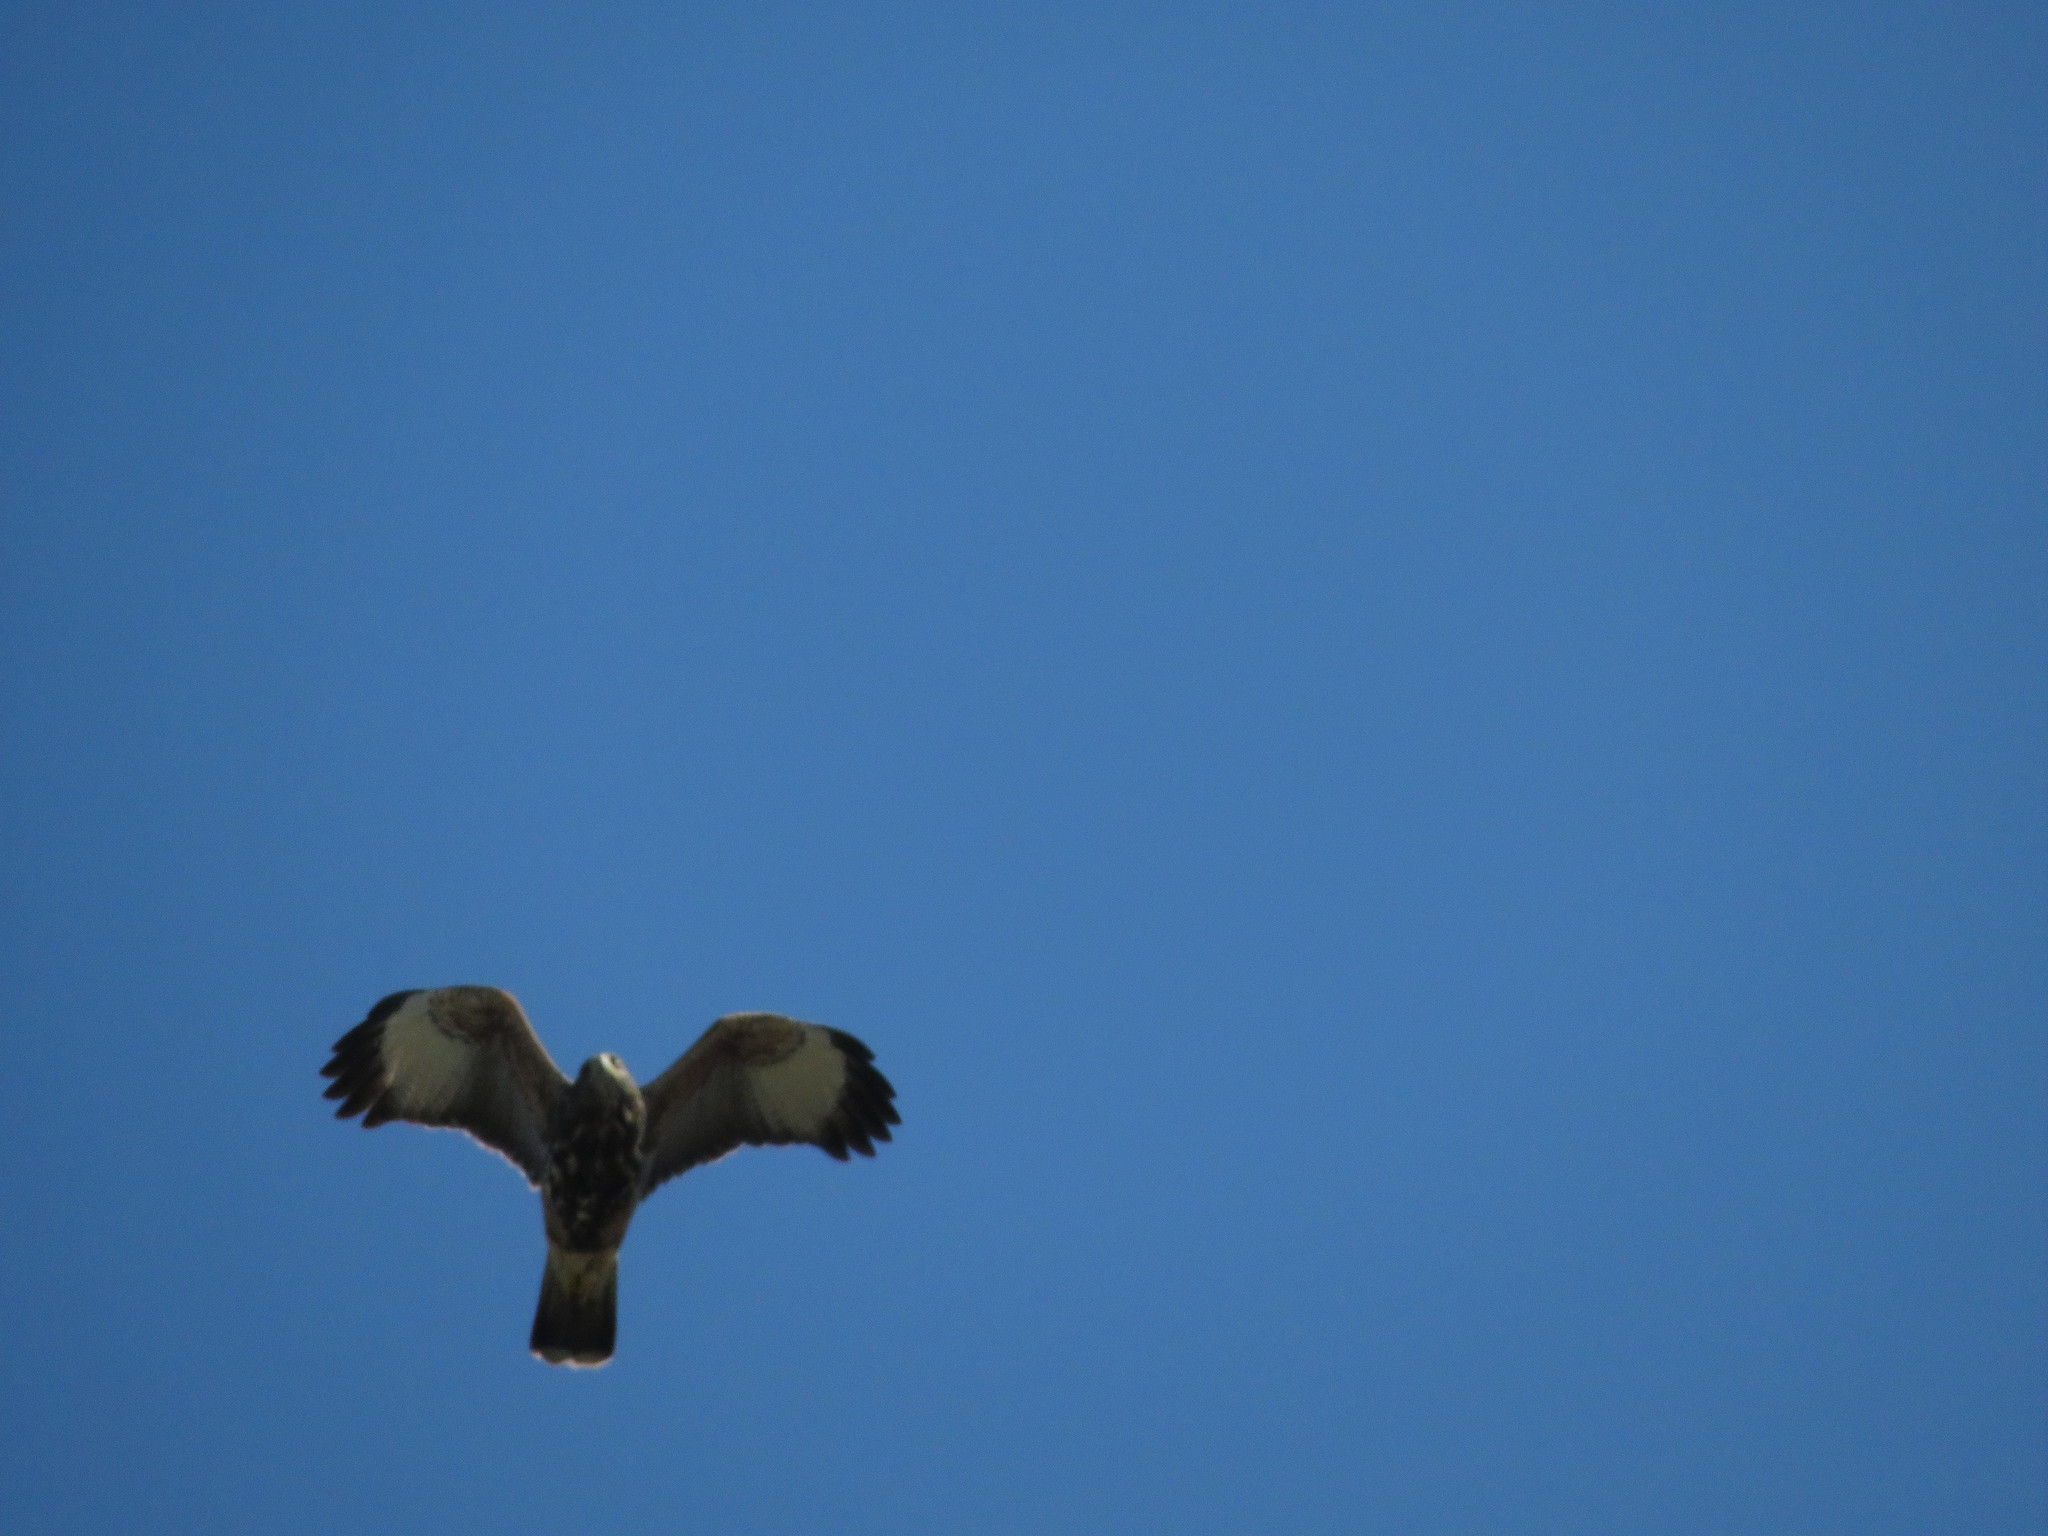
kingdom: Animalia
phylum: Chordata
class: Aves
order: Accipitriformes
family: Accipitridae
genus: Parabuteo
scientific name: Parabuteo unicinctus
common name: Harris's hawk
